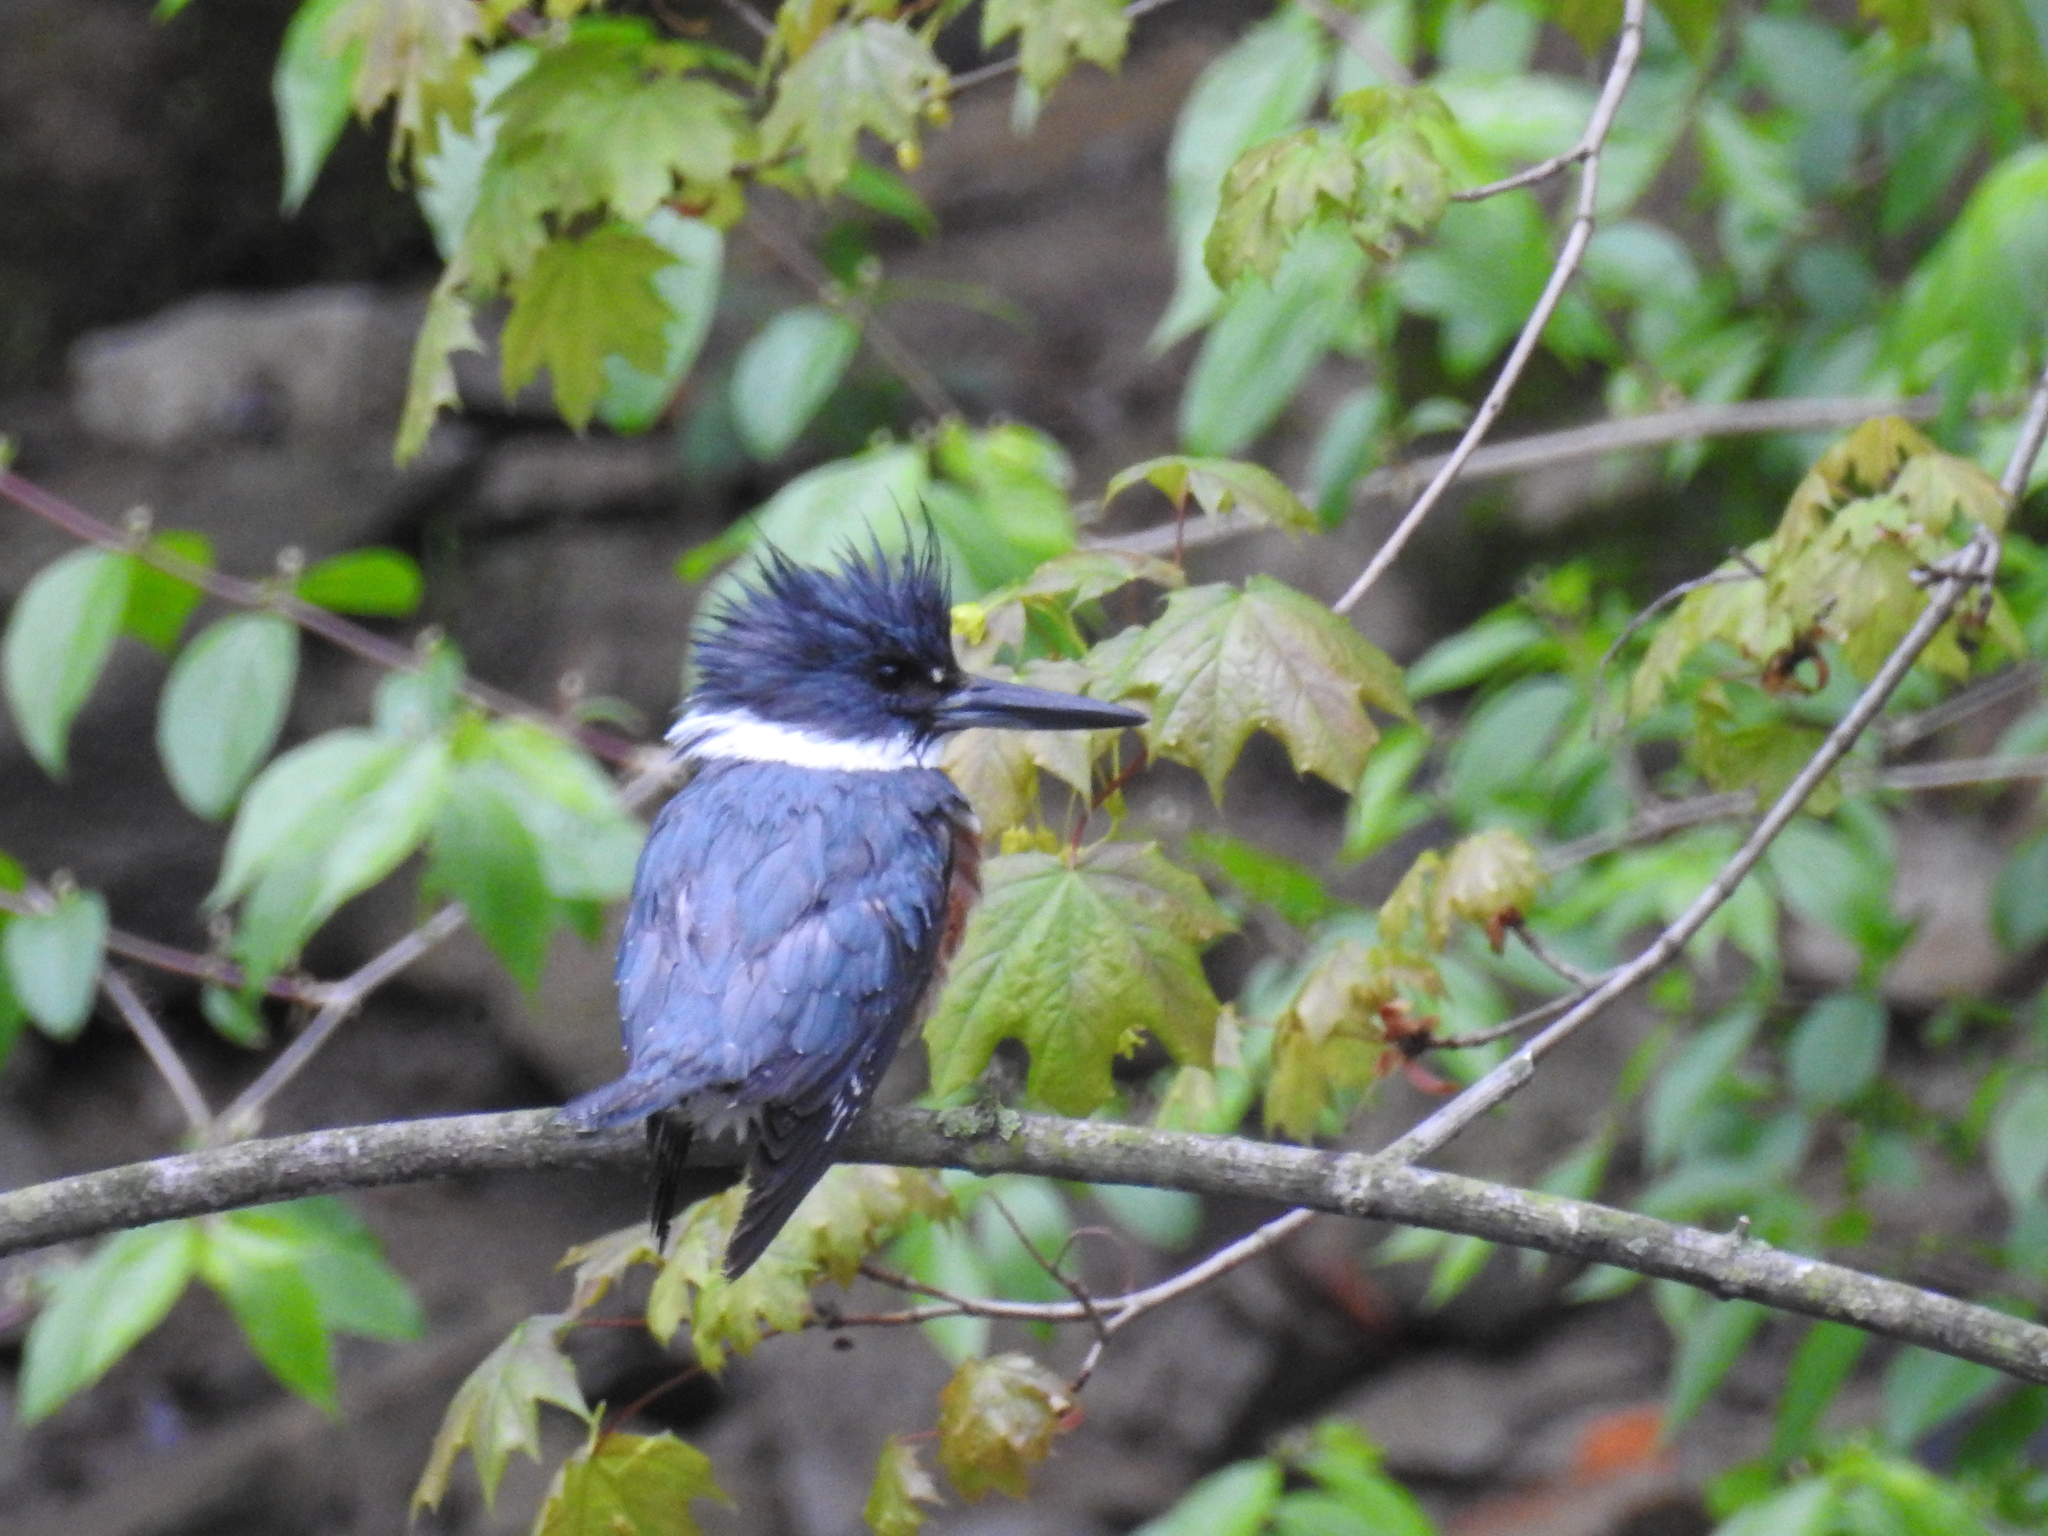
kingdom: Animalia
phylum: Chordata
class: Aves
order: Coraciiformes
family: Alcedinidae
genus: Megaceryle
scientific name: Megaceryle alcyon
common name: Belted kingfisher
